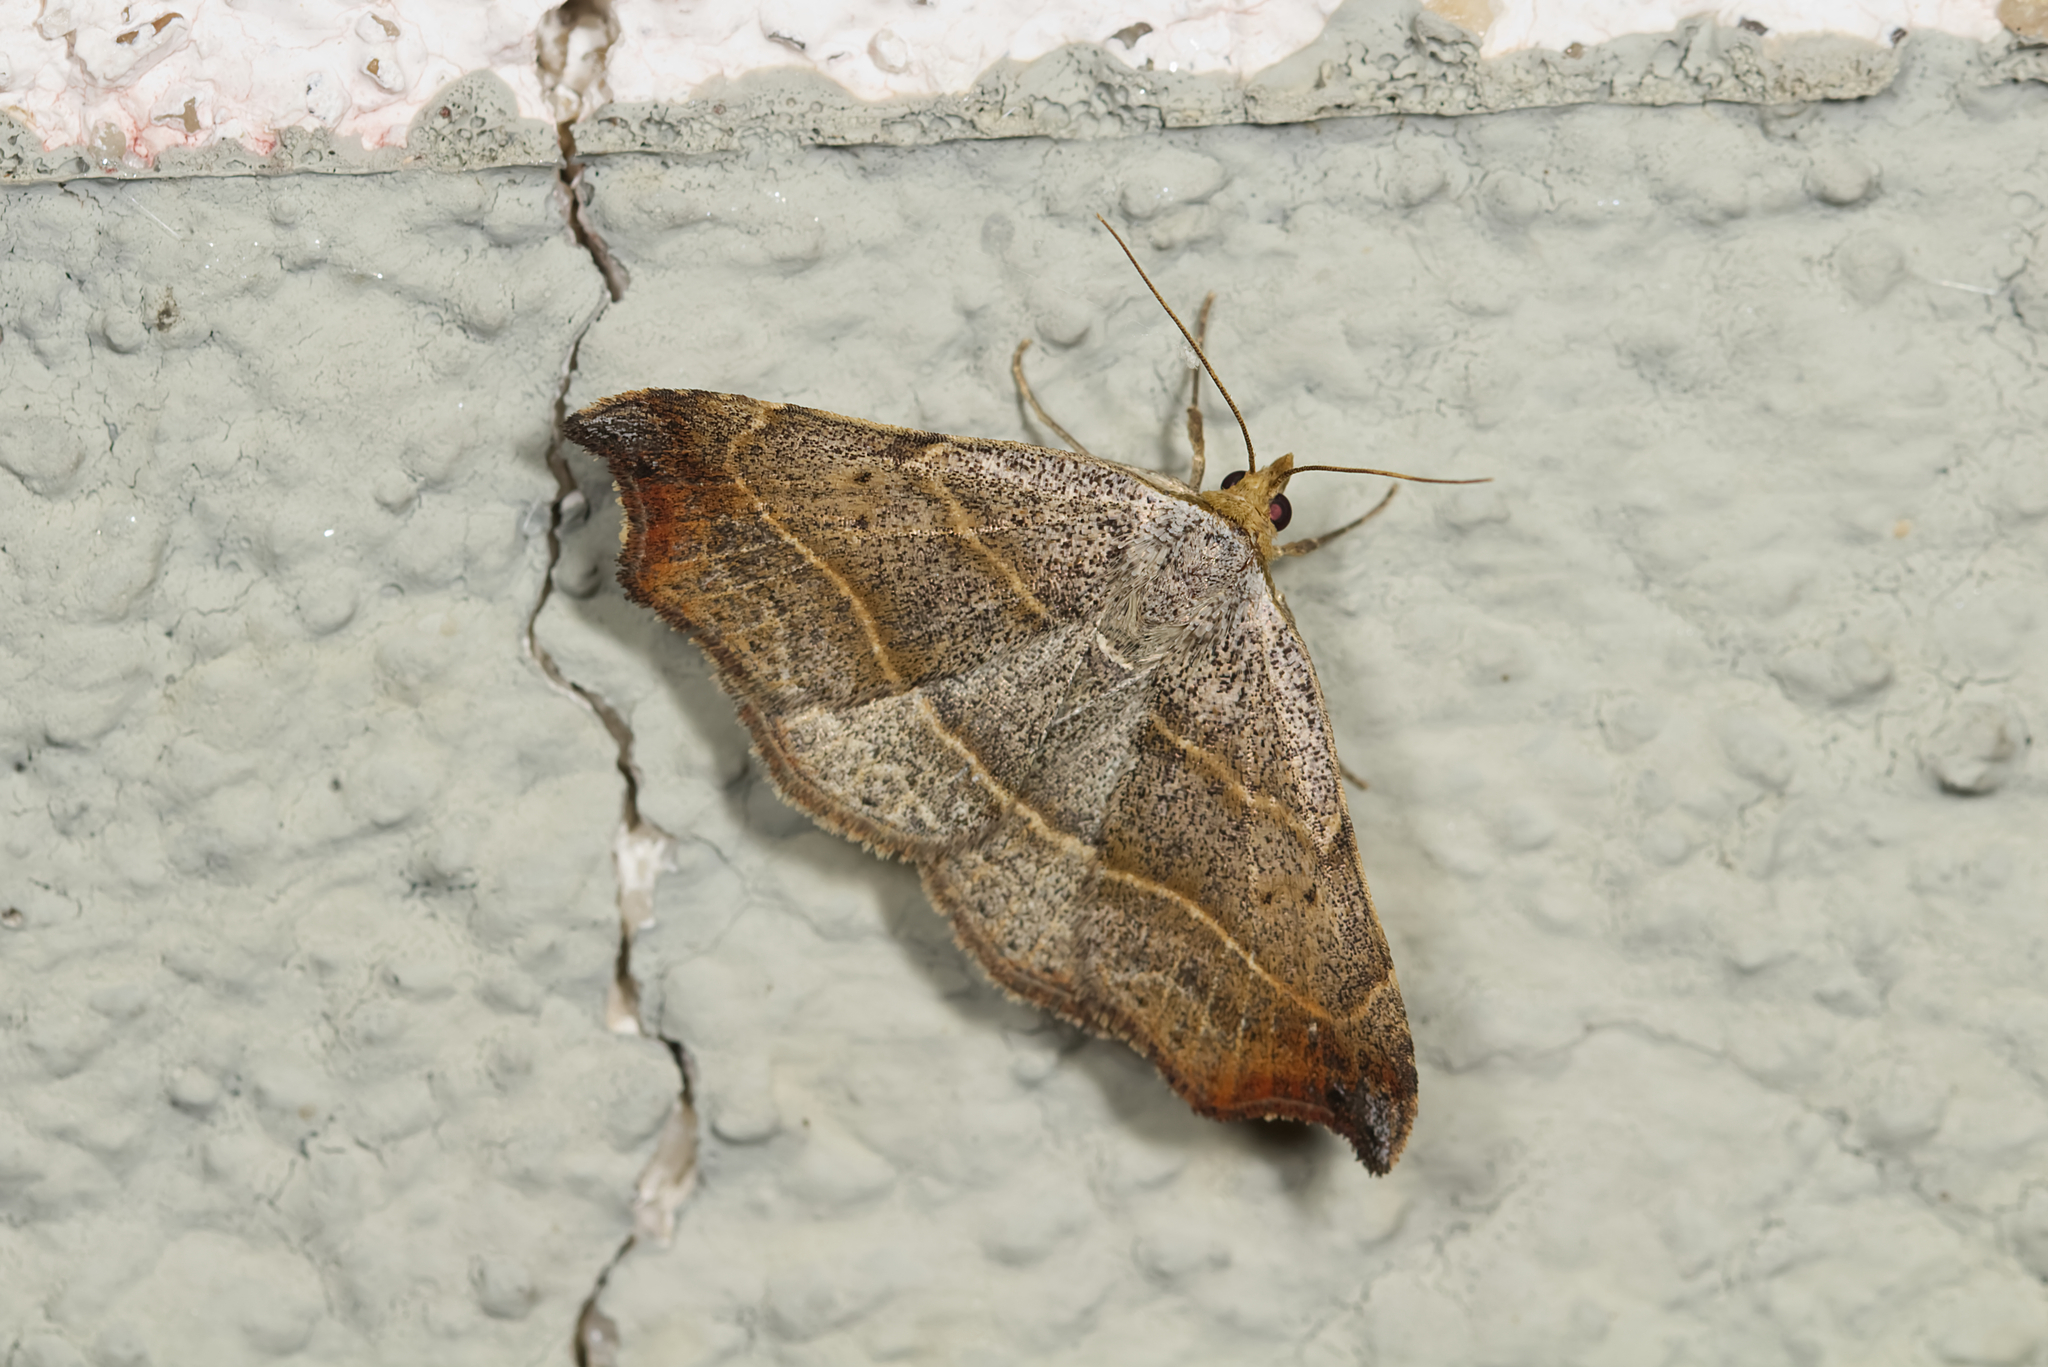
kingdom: Animalia
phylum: Arthropoda
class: Insecta
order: Lepidoptera
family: Erebidae
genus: Laspeyria
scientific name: Laspeyria flexula
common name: Beautiful hook-tip
